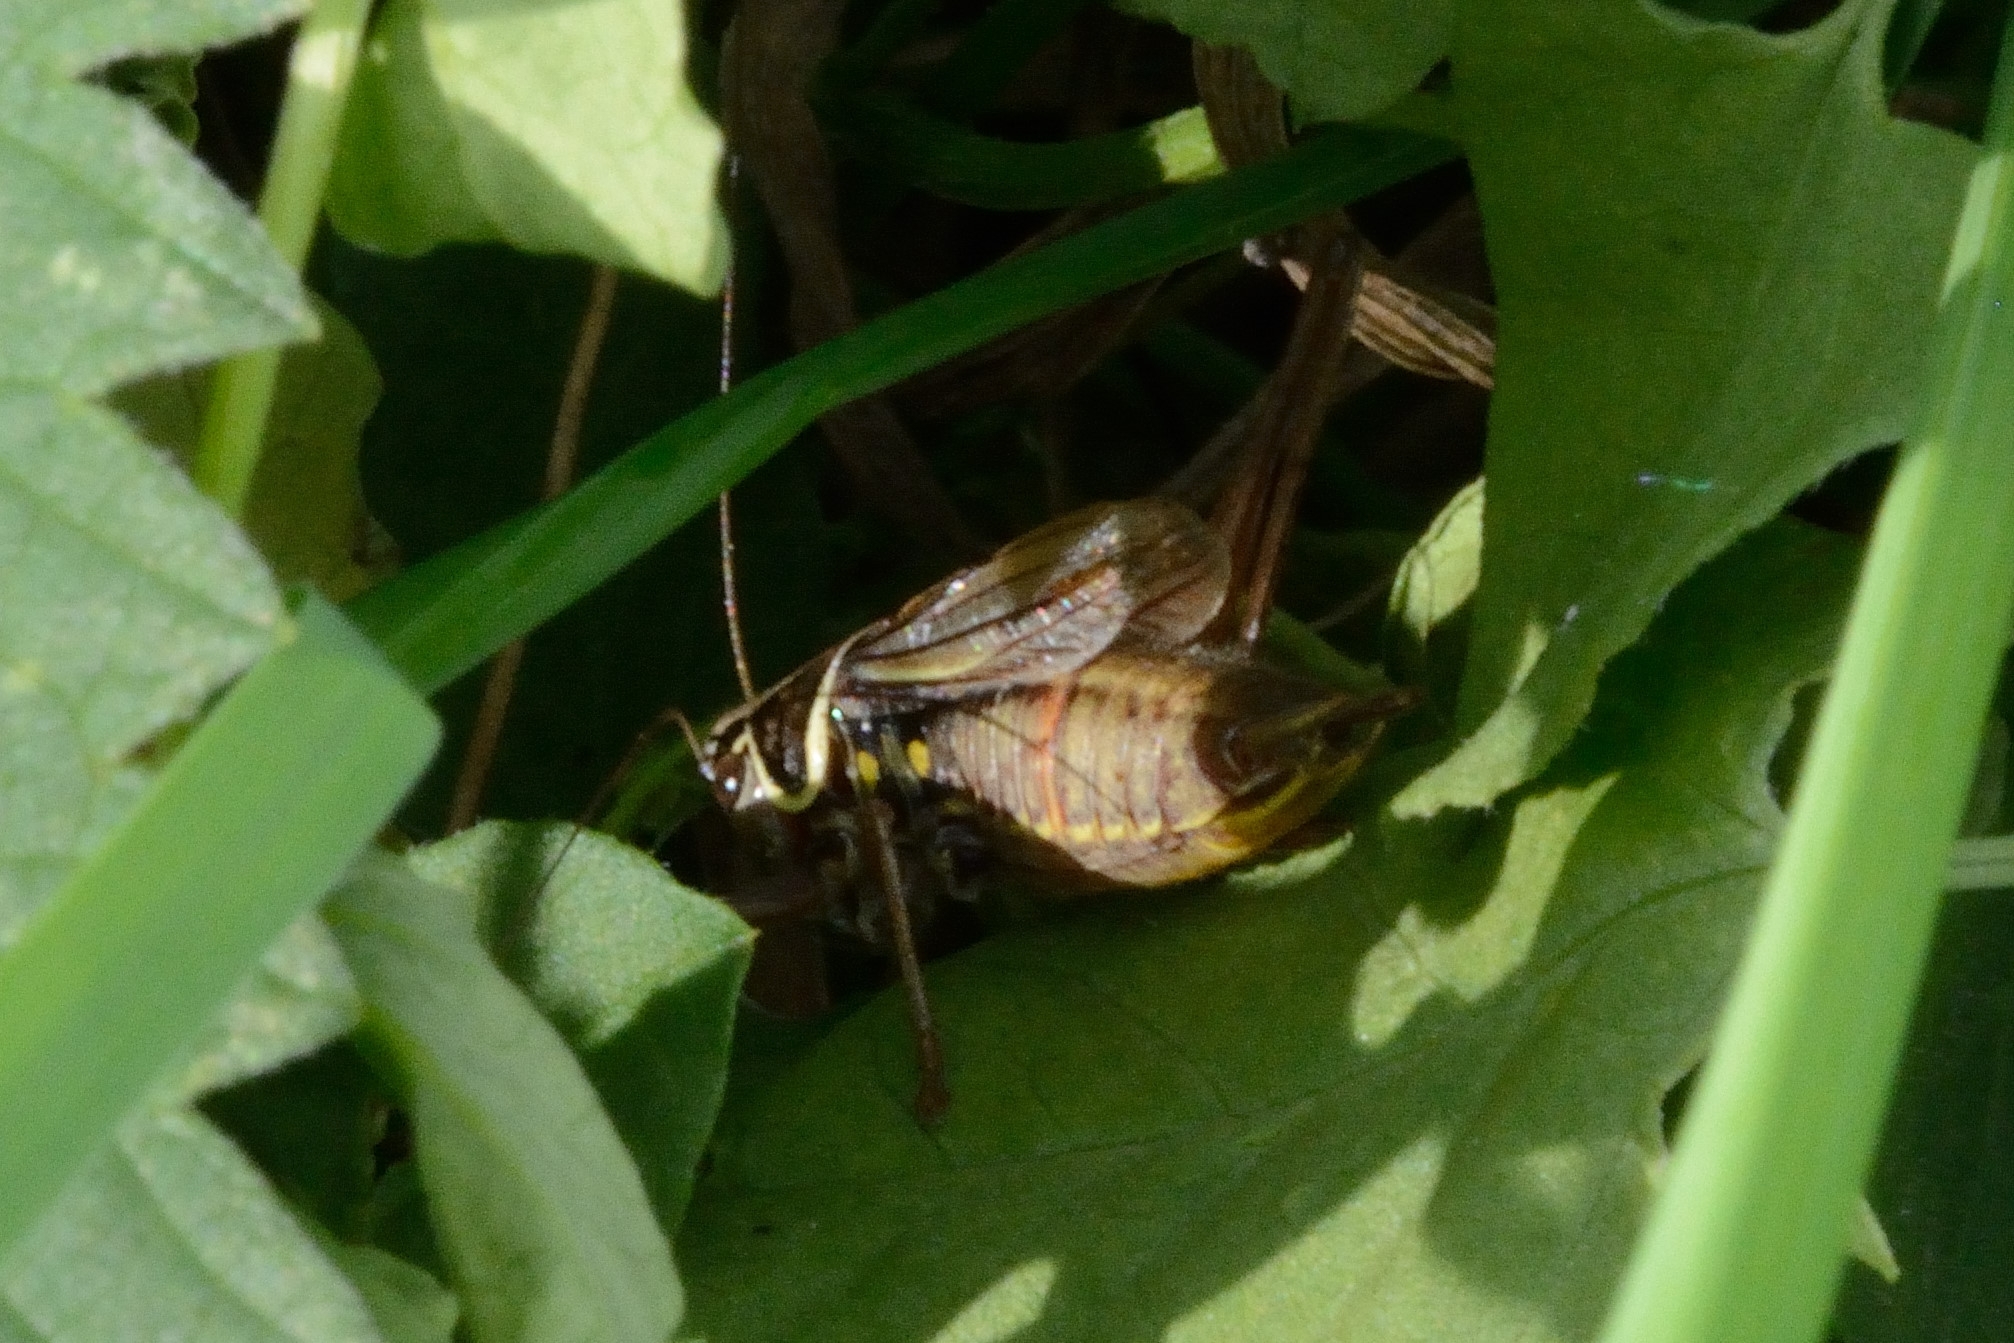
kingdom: Animalia
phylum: Arthropoda
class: Insecta
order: Orthoptera
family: Tettigoniidae
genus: Roeseliana
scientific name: Roeseliana roeselii
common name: Roesel's bush cricket
